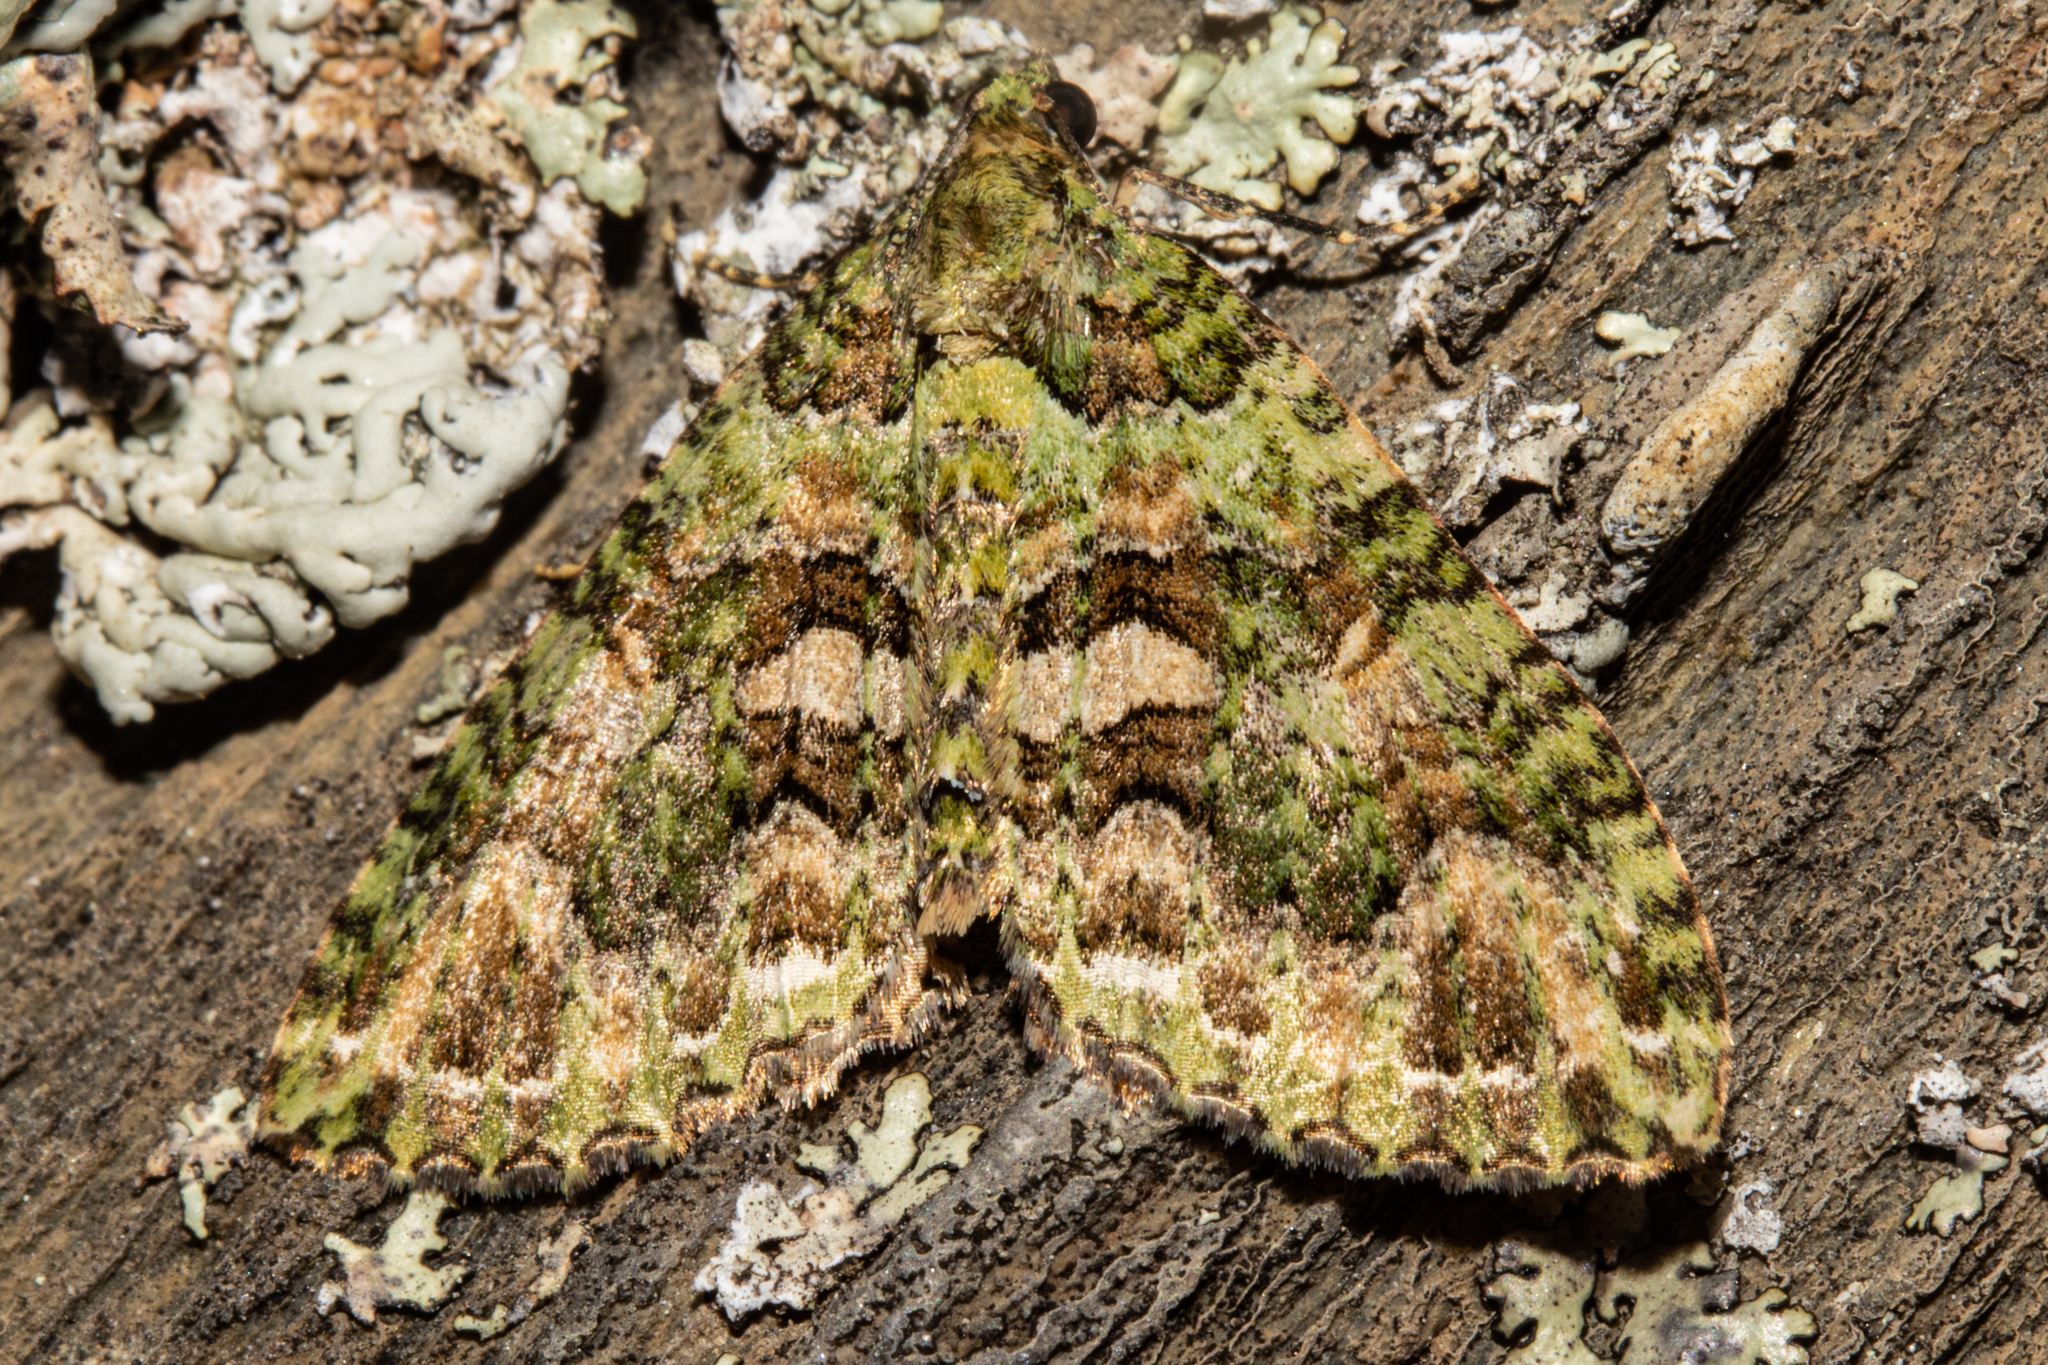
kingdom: Animalia
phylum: Arthropoda
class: Insecta
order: Lepidoptera
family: Geometridae
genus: Austrocidaria
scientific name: Austrocidaria similata
